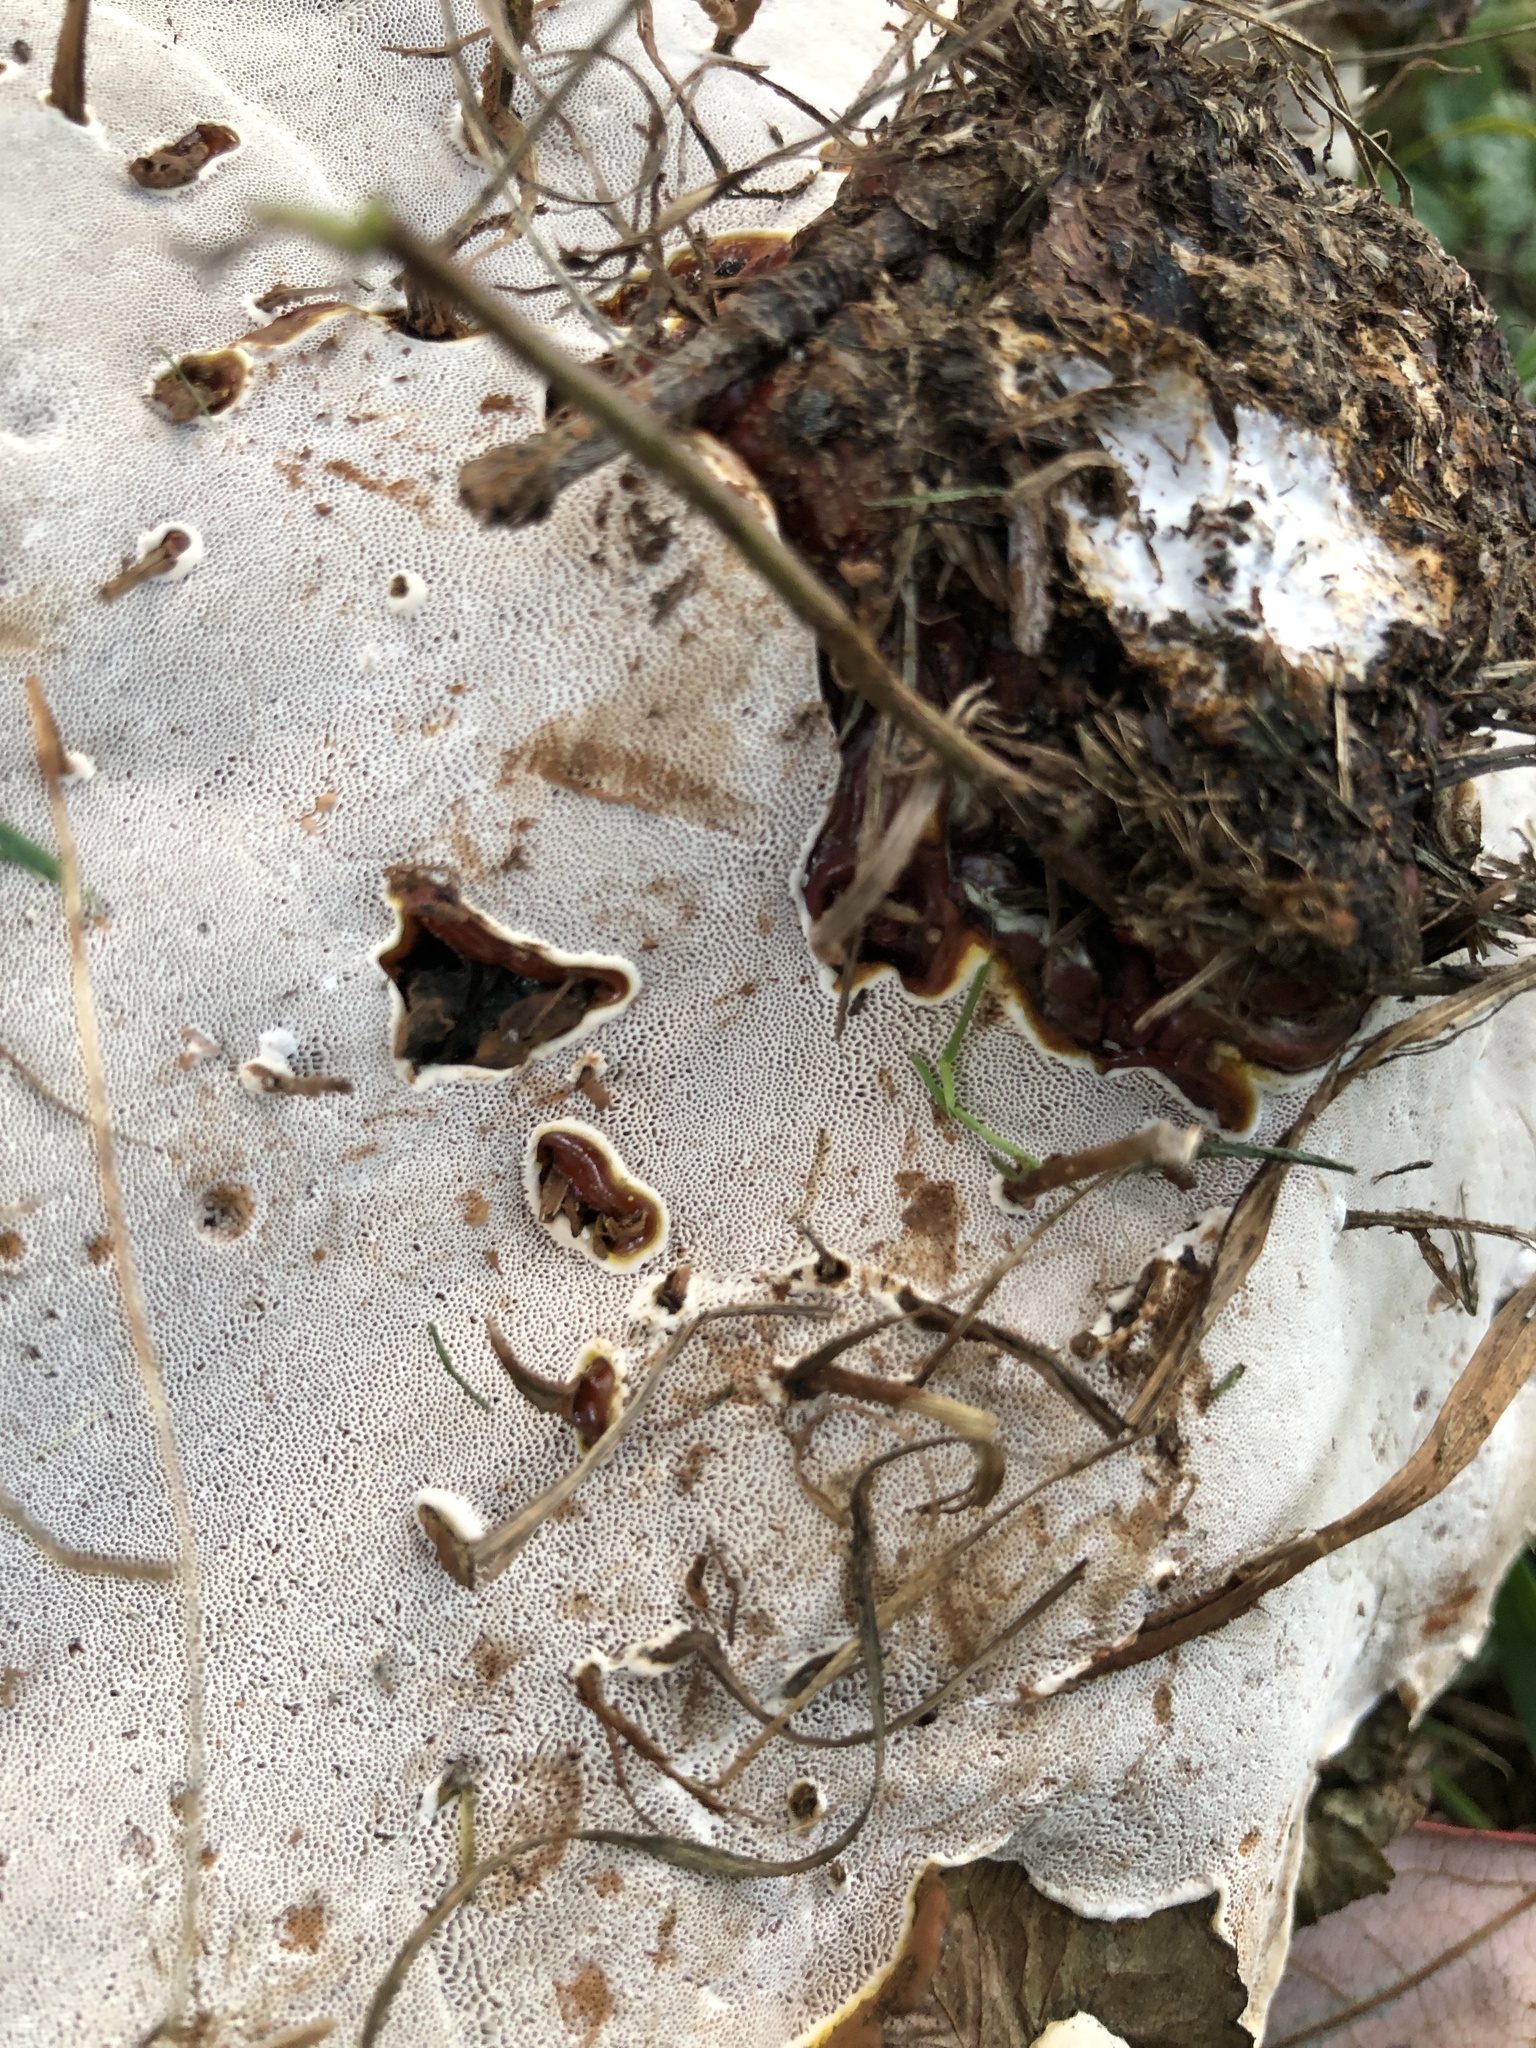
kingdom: Fungi
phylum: Basidiomycota
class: Agaricomycetes
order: Polyporales
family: Polyporaceae
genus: Ganoderma
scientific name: Ganoderma resinaceum
